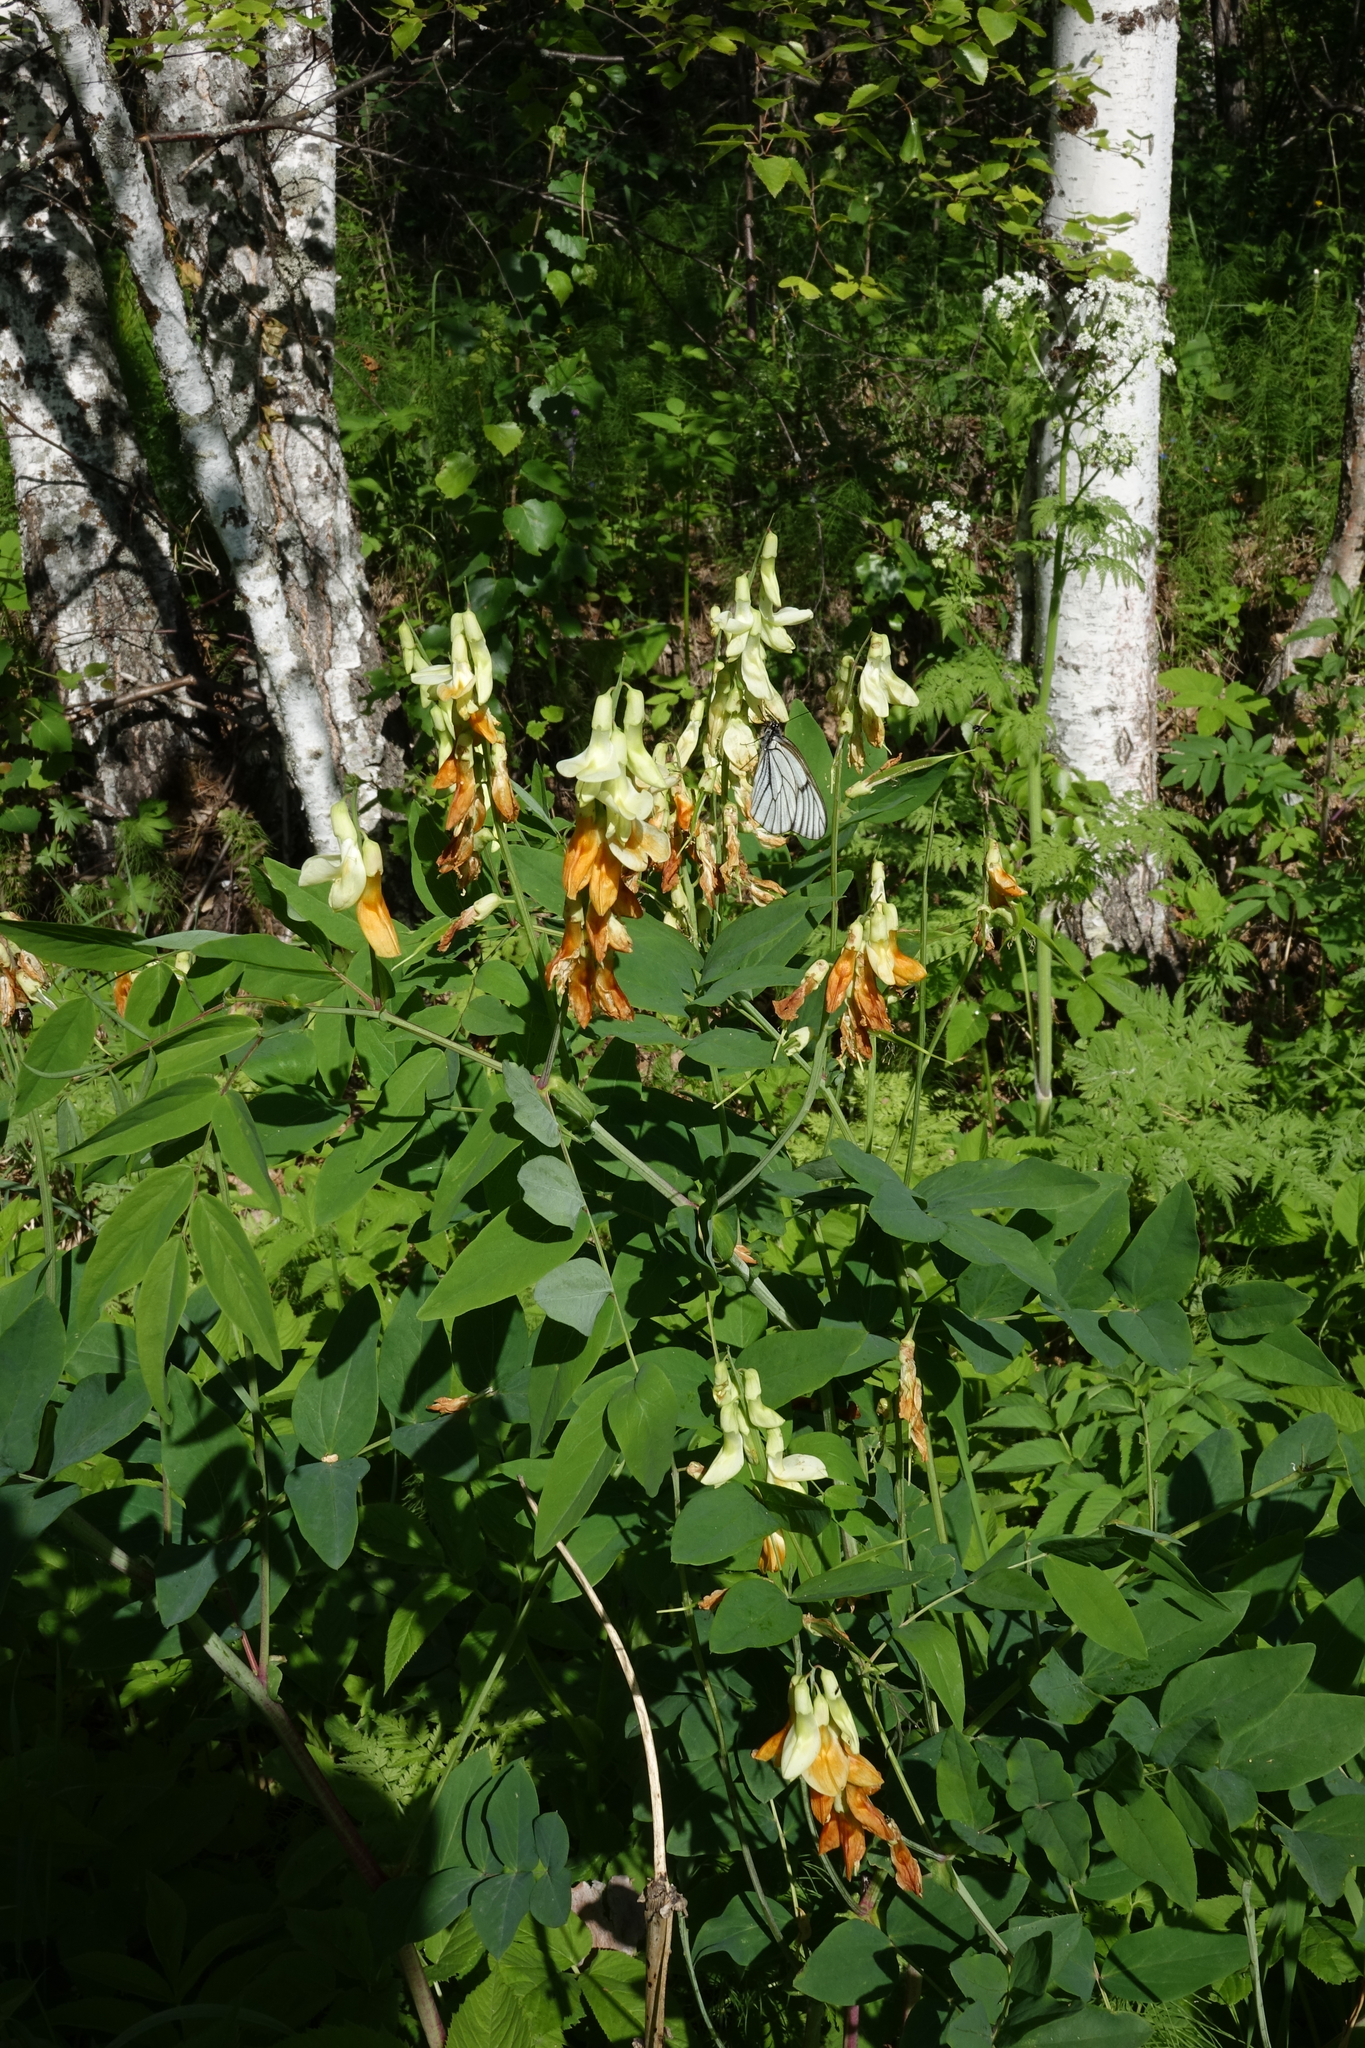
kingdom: Plantae
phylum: Tracheophyta
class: Magnoliopsida
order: Fabales
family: Fabaceae
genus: Lathyrus
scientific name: Lathyrus gmelinii
